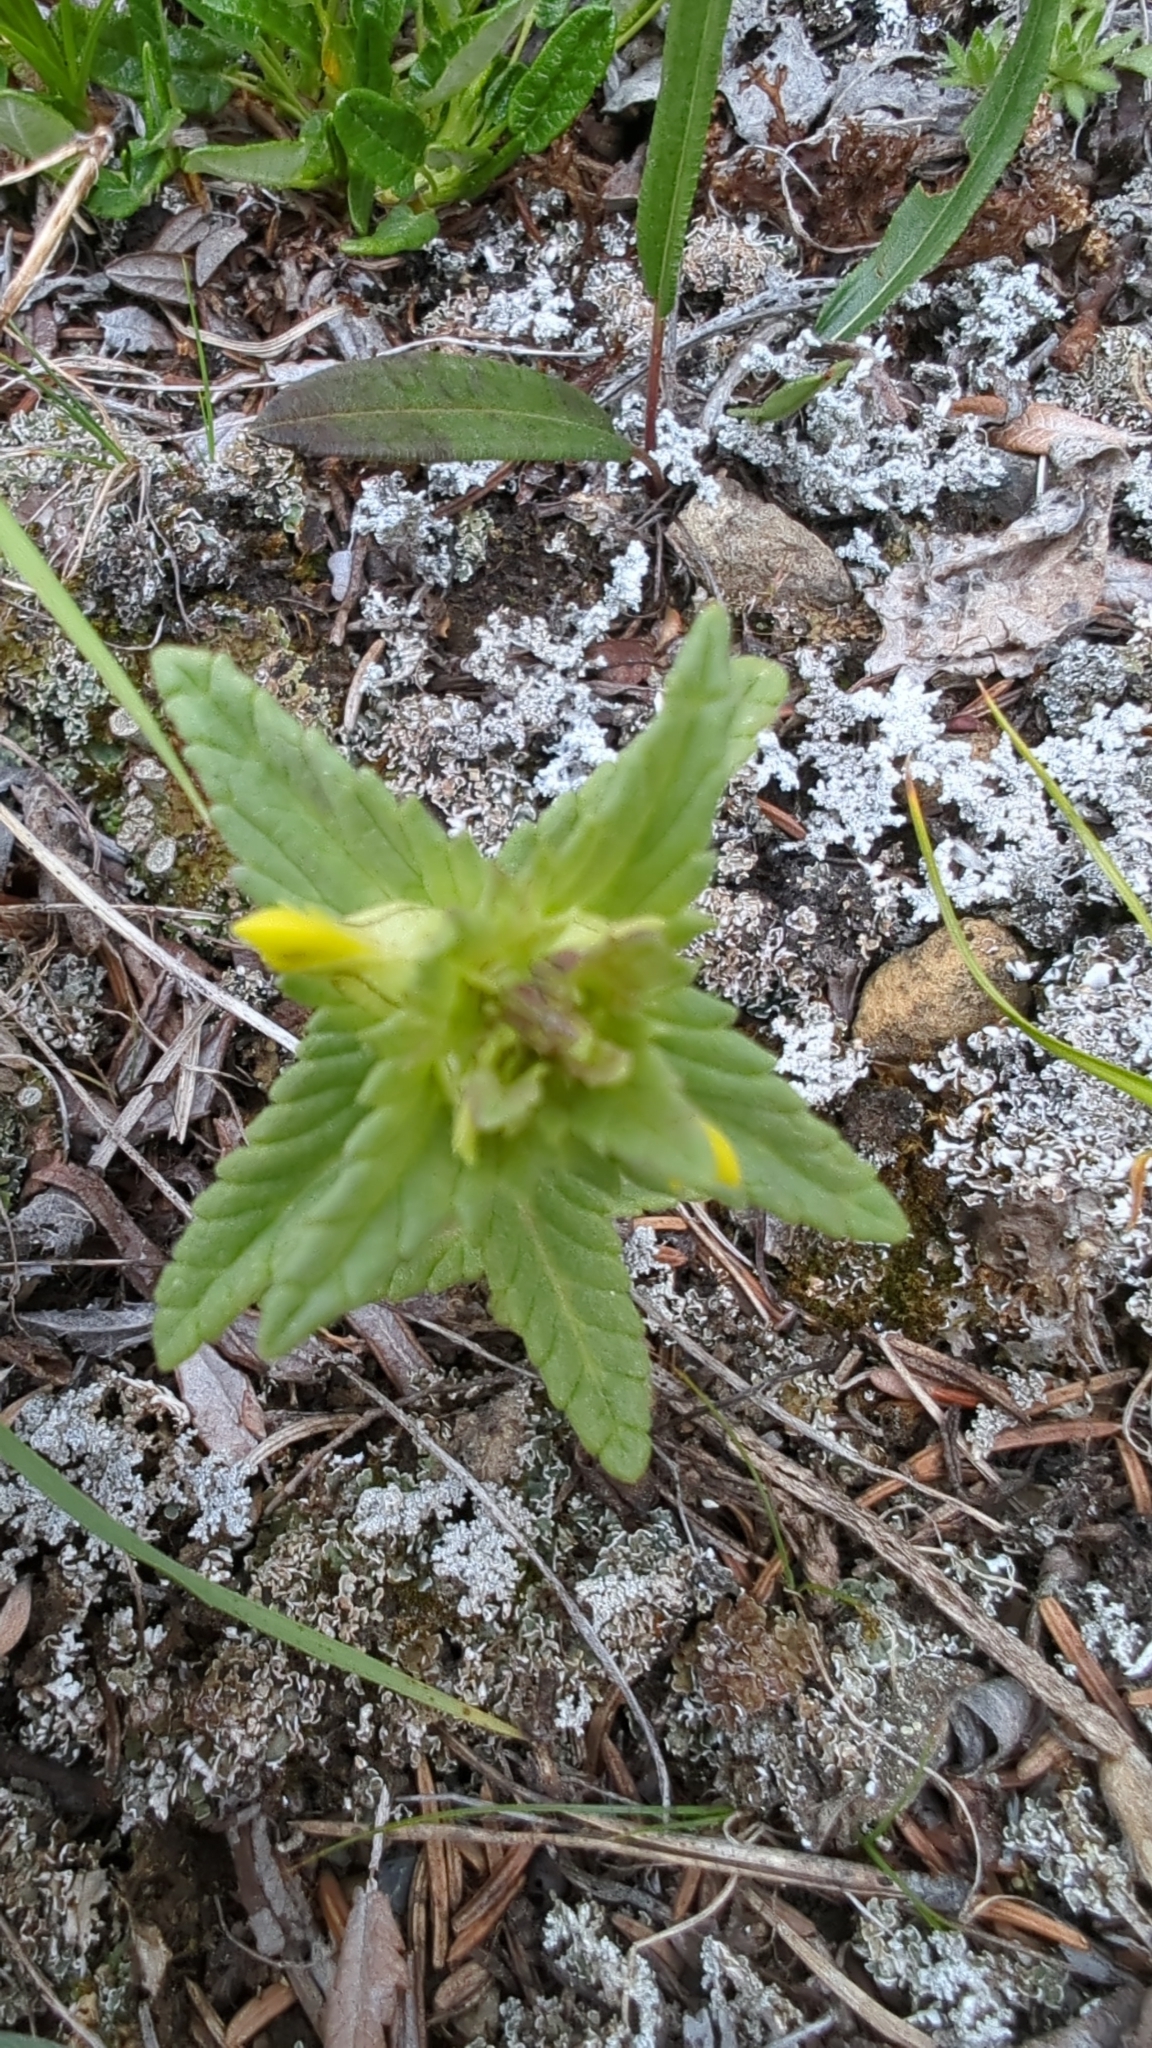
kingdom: Plantae
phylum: Tracheophyta
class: Magnoliopsida
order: Lamiales
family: Orobanchaceae
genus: Rhinanthus
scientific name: Rhinanthus minor
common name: Yellow-rattle
